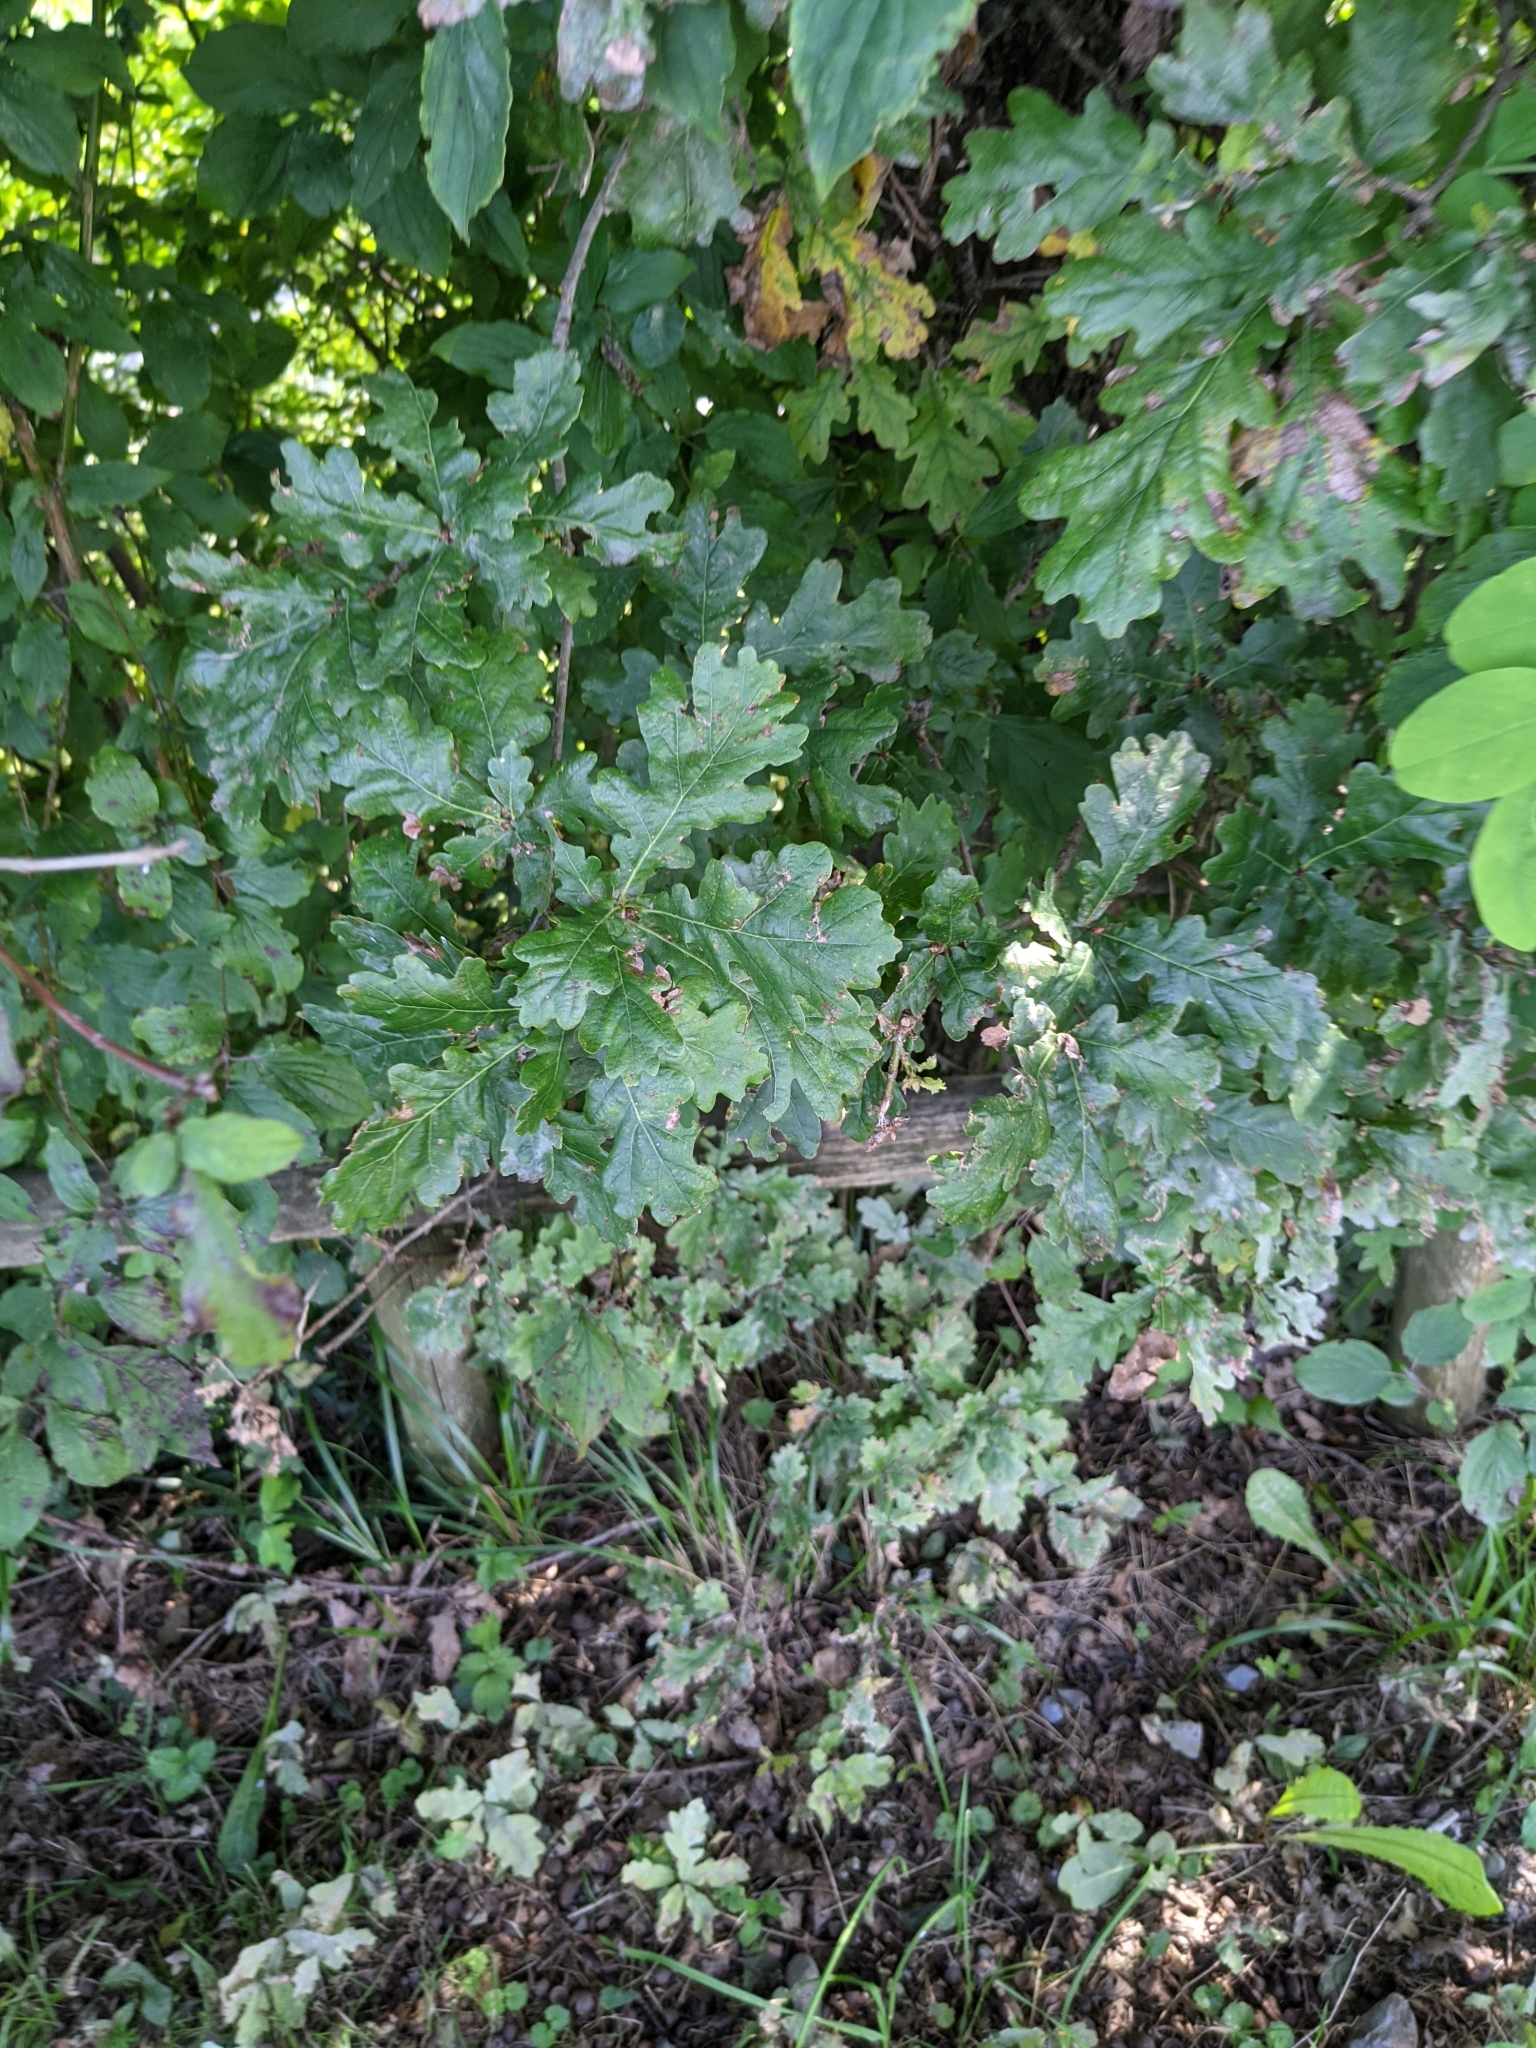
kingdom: Plantae
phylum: Tracheophyta
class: Magnoliopsida
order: Fagales
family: Fagaceae
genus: Quercus
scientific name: Quercus robur
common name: Pedunculate oak
